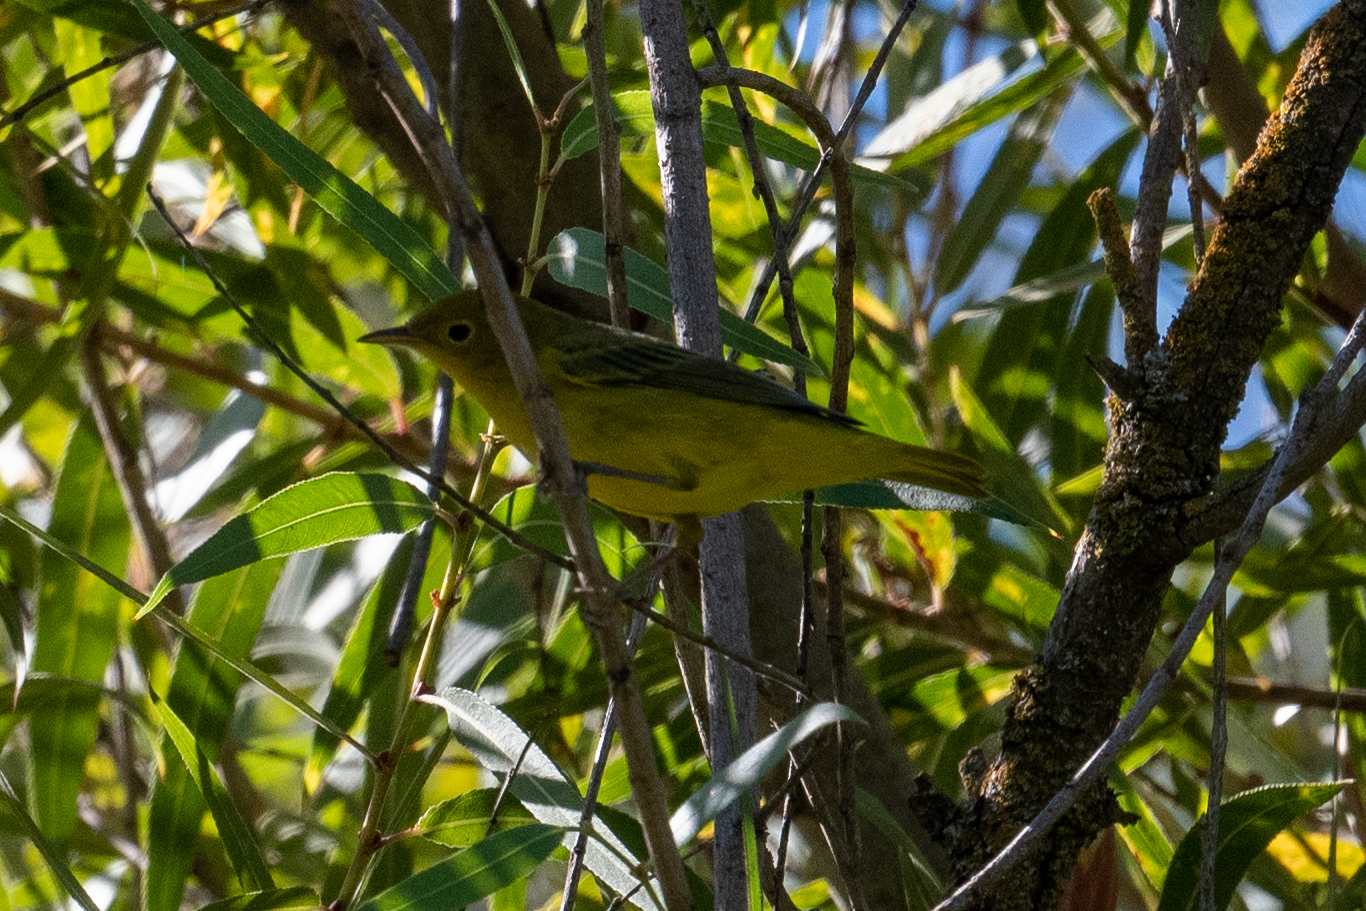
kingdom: Animalia
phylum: Chordata
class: Aves
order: Passeriformes
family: Parulidae
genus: Setophaga
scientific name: Setophaga petechia
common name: Yellow warbler
